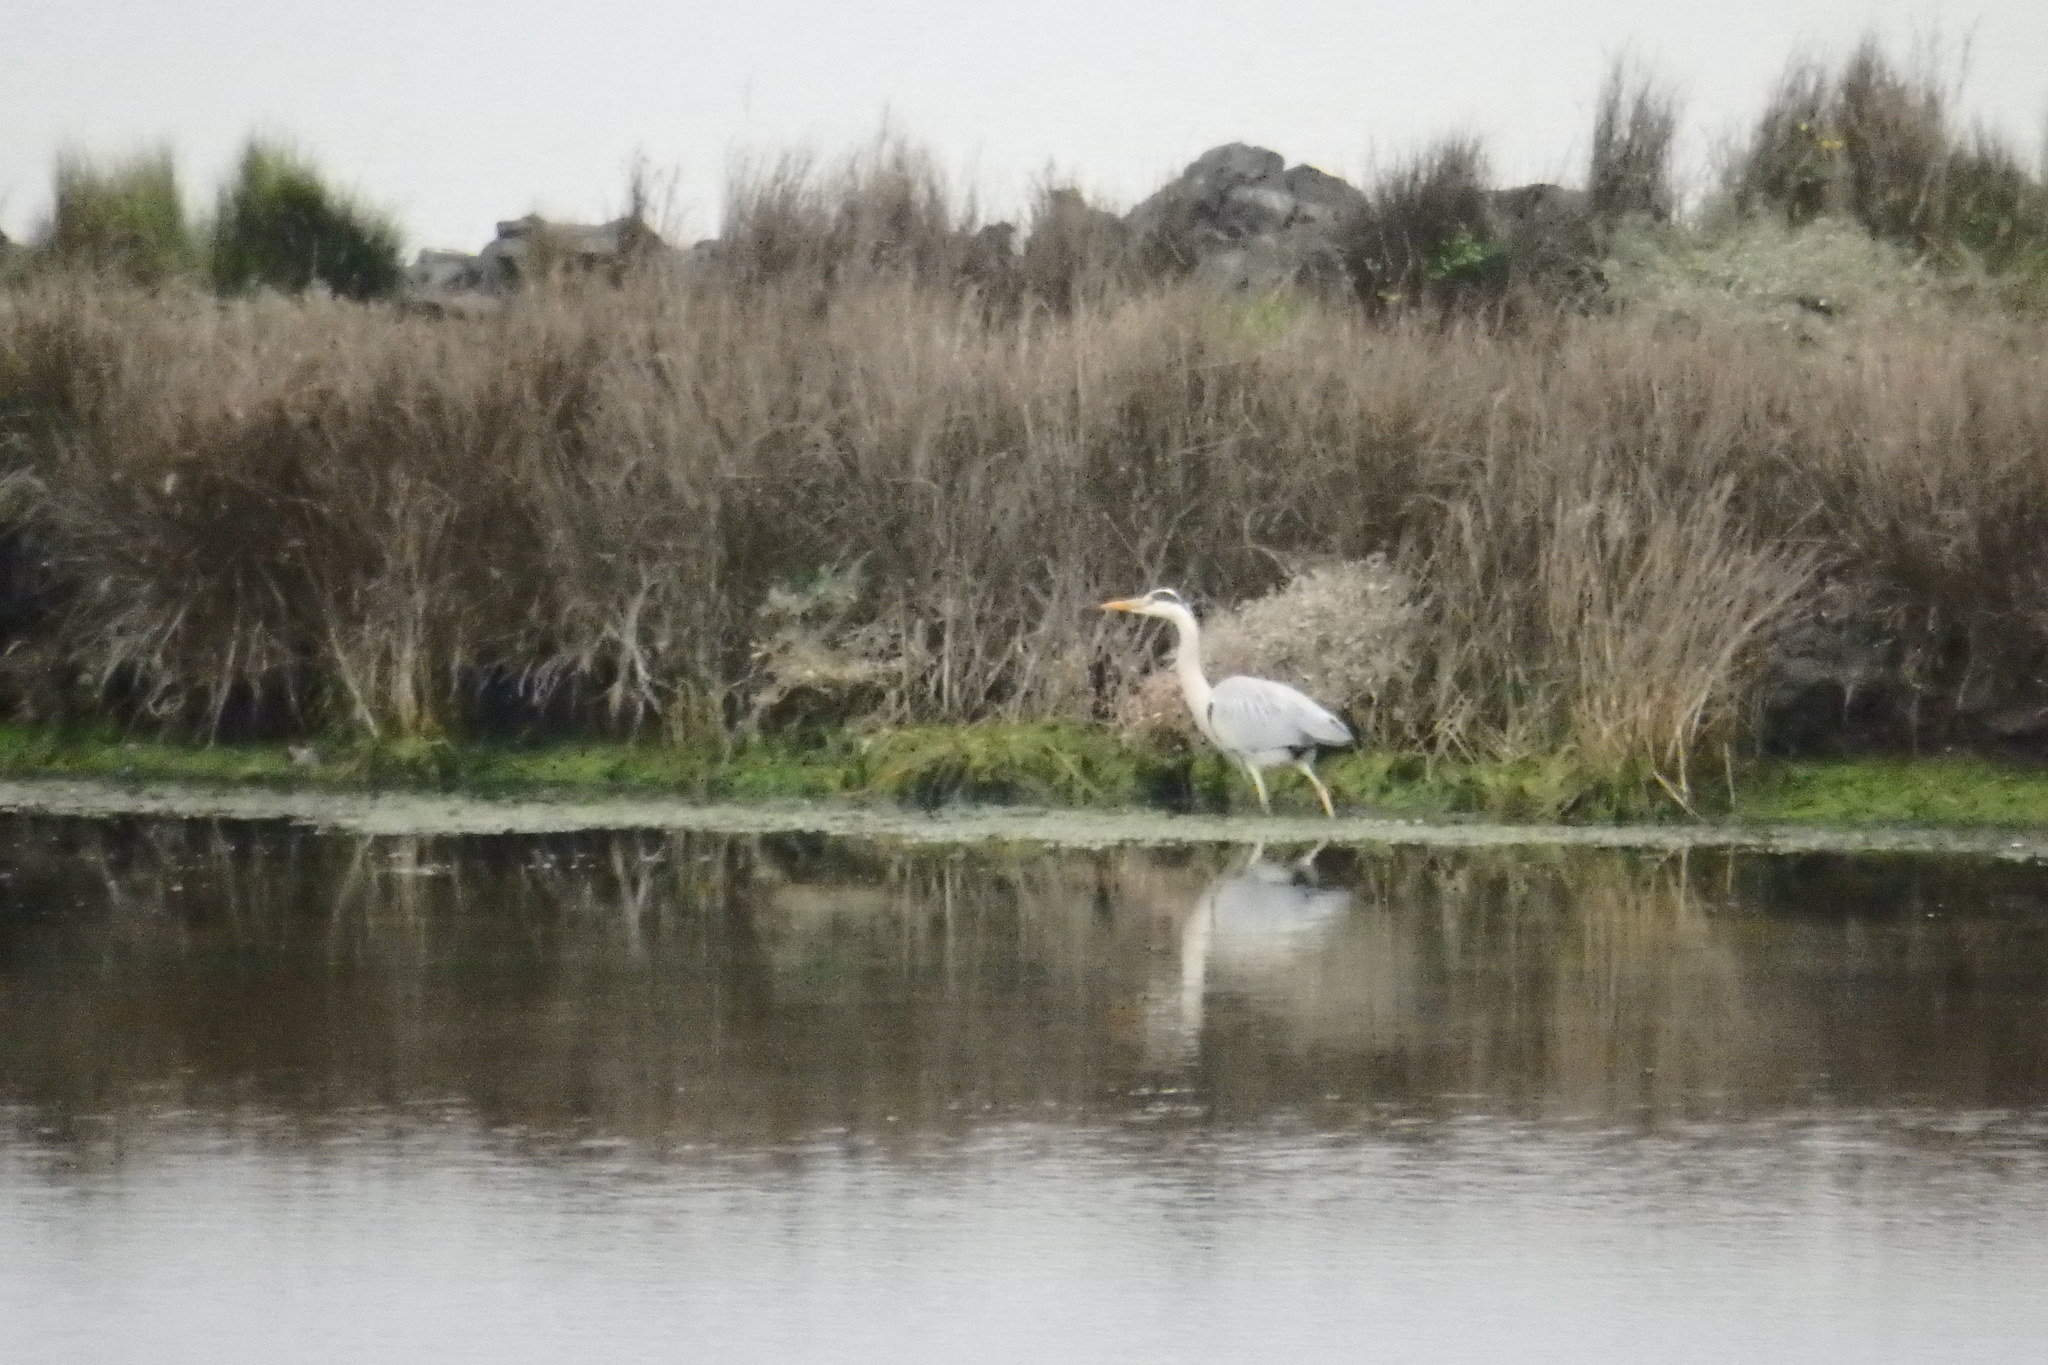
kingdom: Animalia
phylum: Chordata
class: Aves
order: Pelecaniformes
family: Ardeidae
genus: Ardea
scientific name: Ardea cinerea
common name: Grey heron
